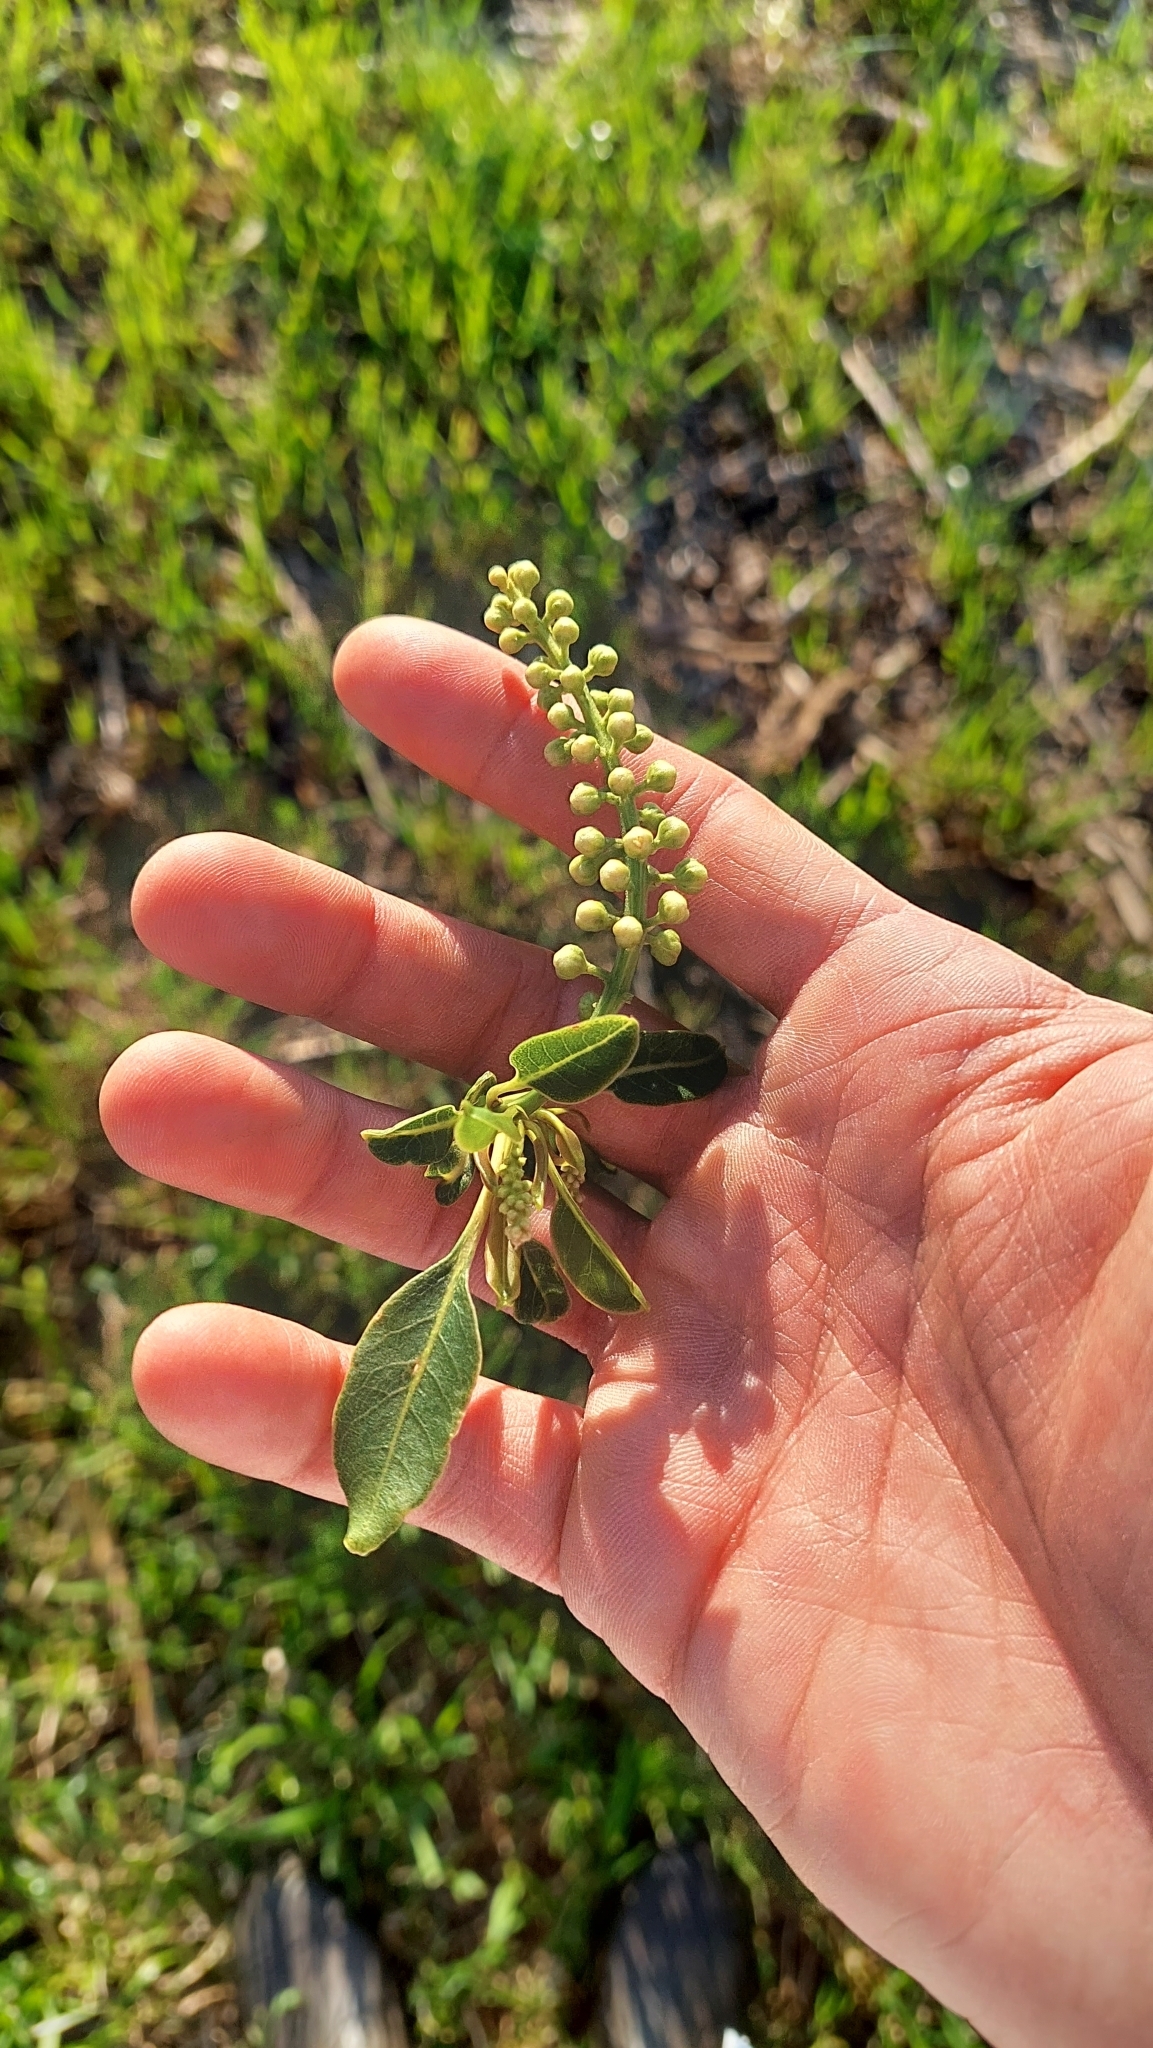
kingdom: Plantae
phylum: Tracheophyta
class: Magnoliopsida
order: Caryophyllales
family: Phytolaccaceae
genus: Phytolacca
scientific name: Phytolacca dioica
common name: Pokeweed
